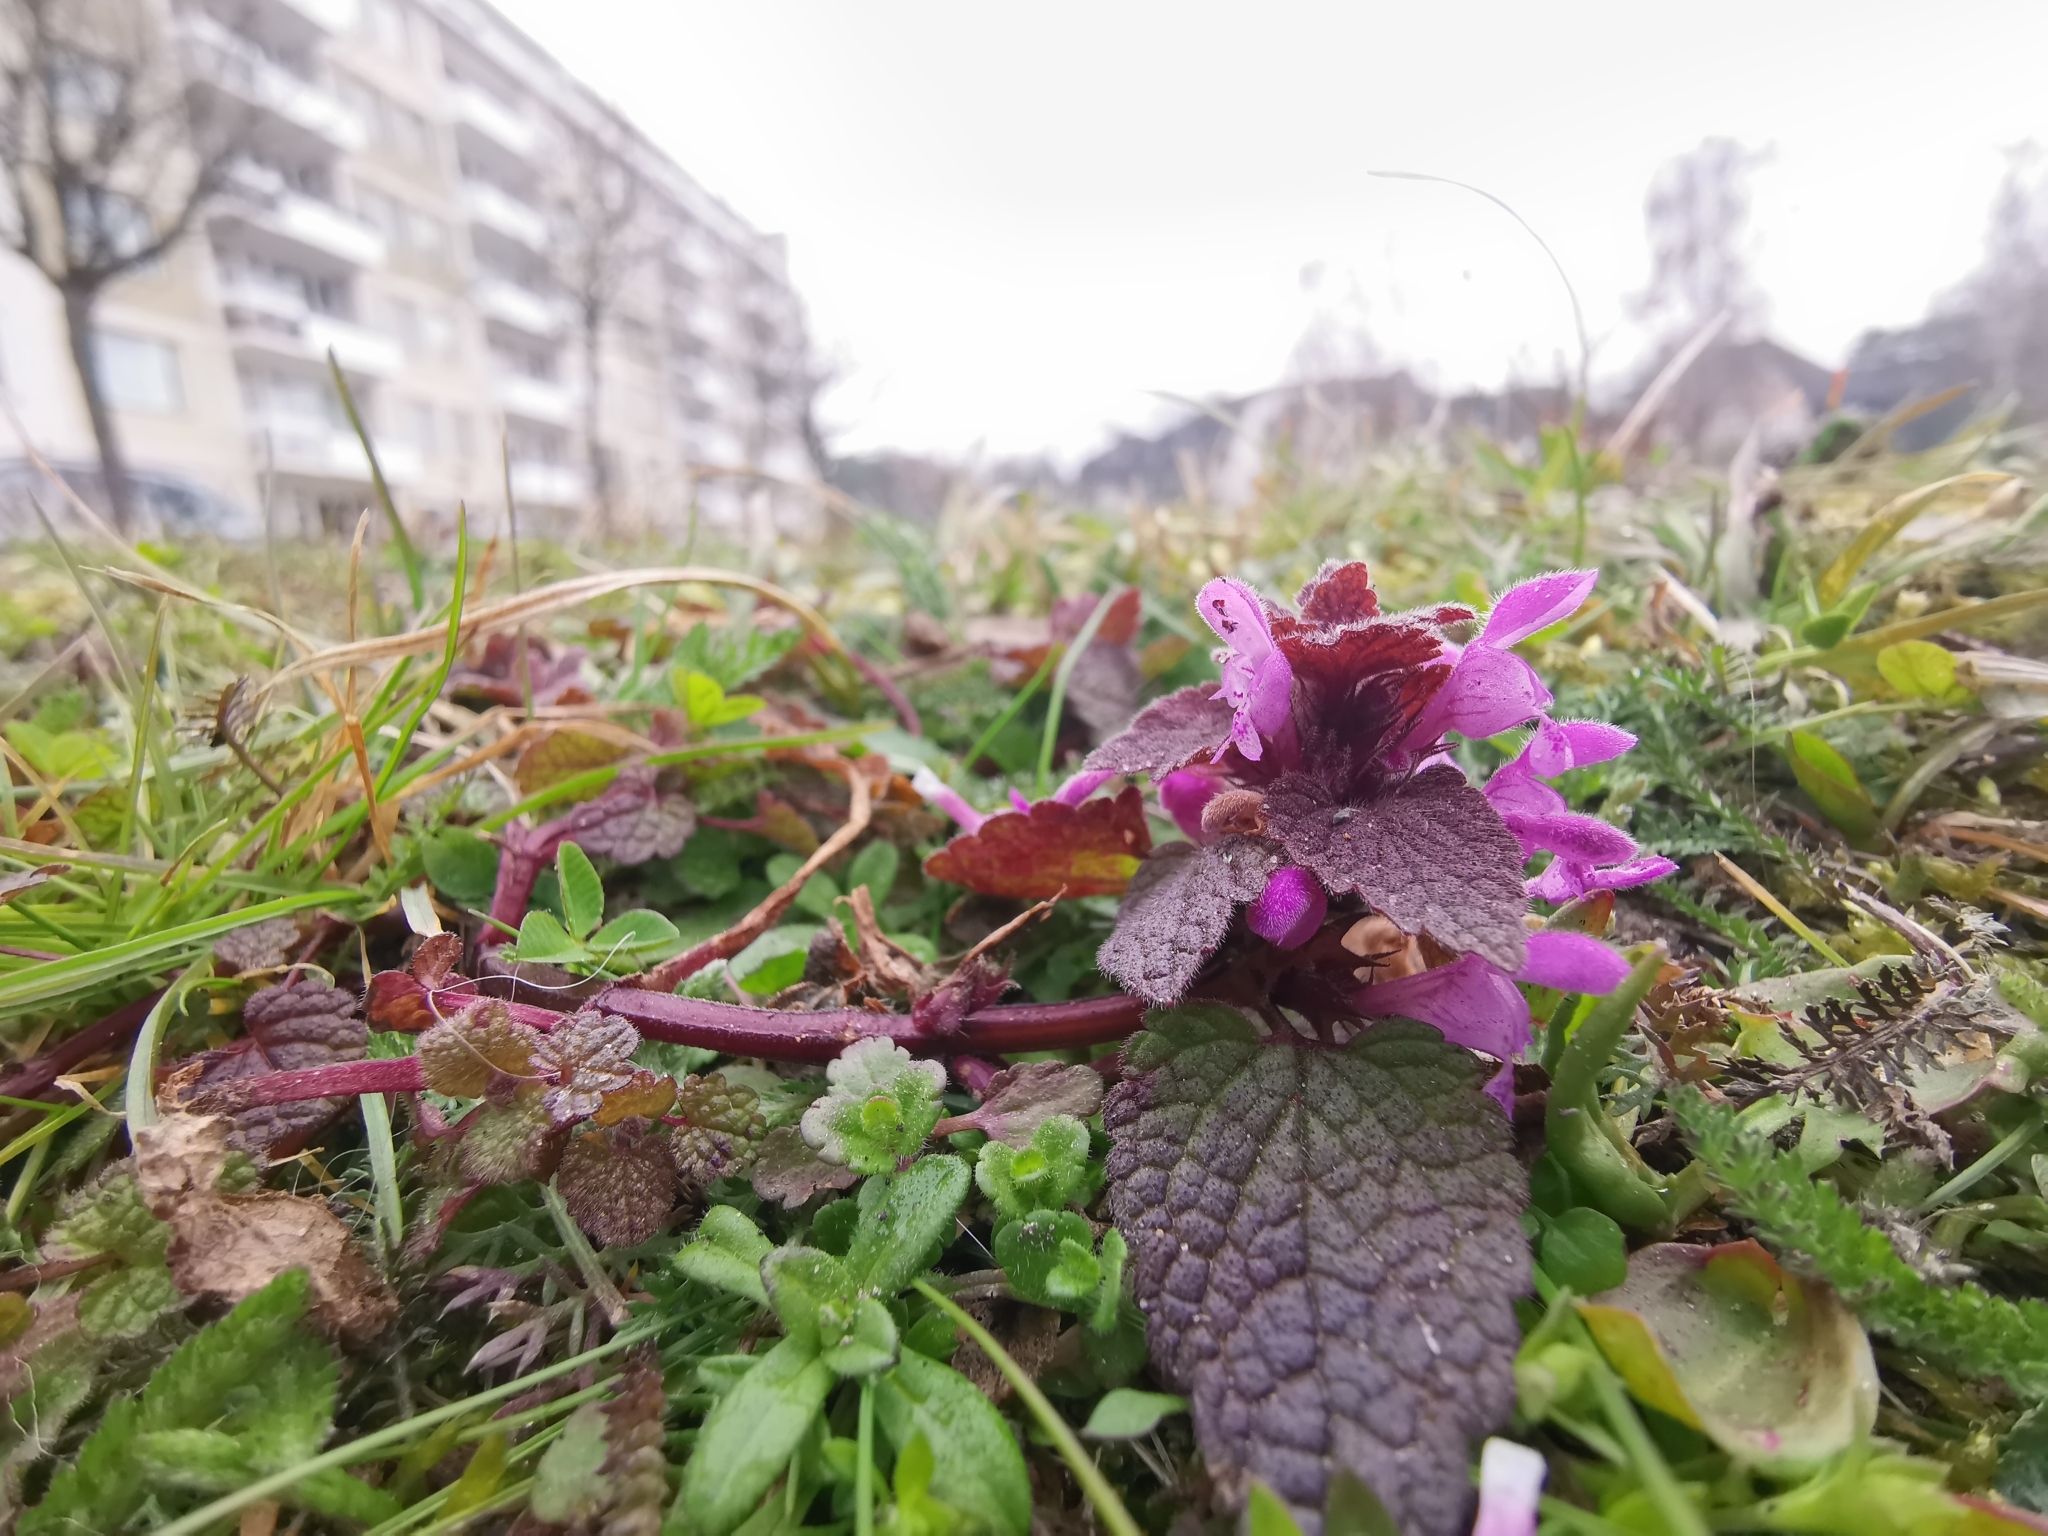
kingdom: Plantae
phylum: Tracheophyta
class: Magnoliopsida
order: Lamiales
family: Lamiaceae
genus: Lamium
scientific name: Lamium purpureum
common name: Red dead-nettle
